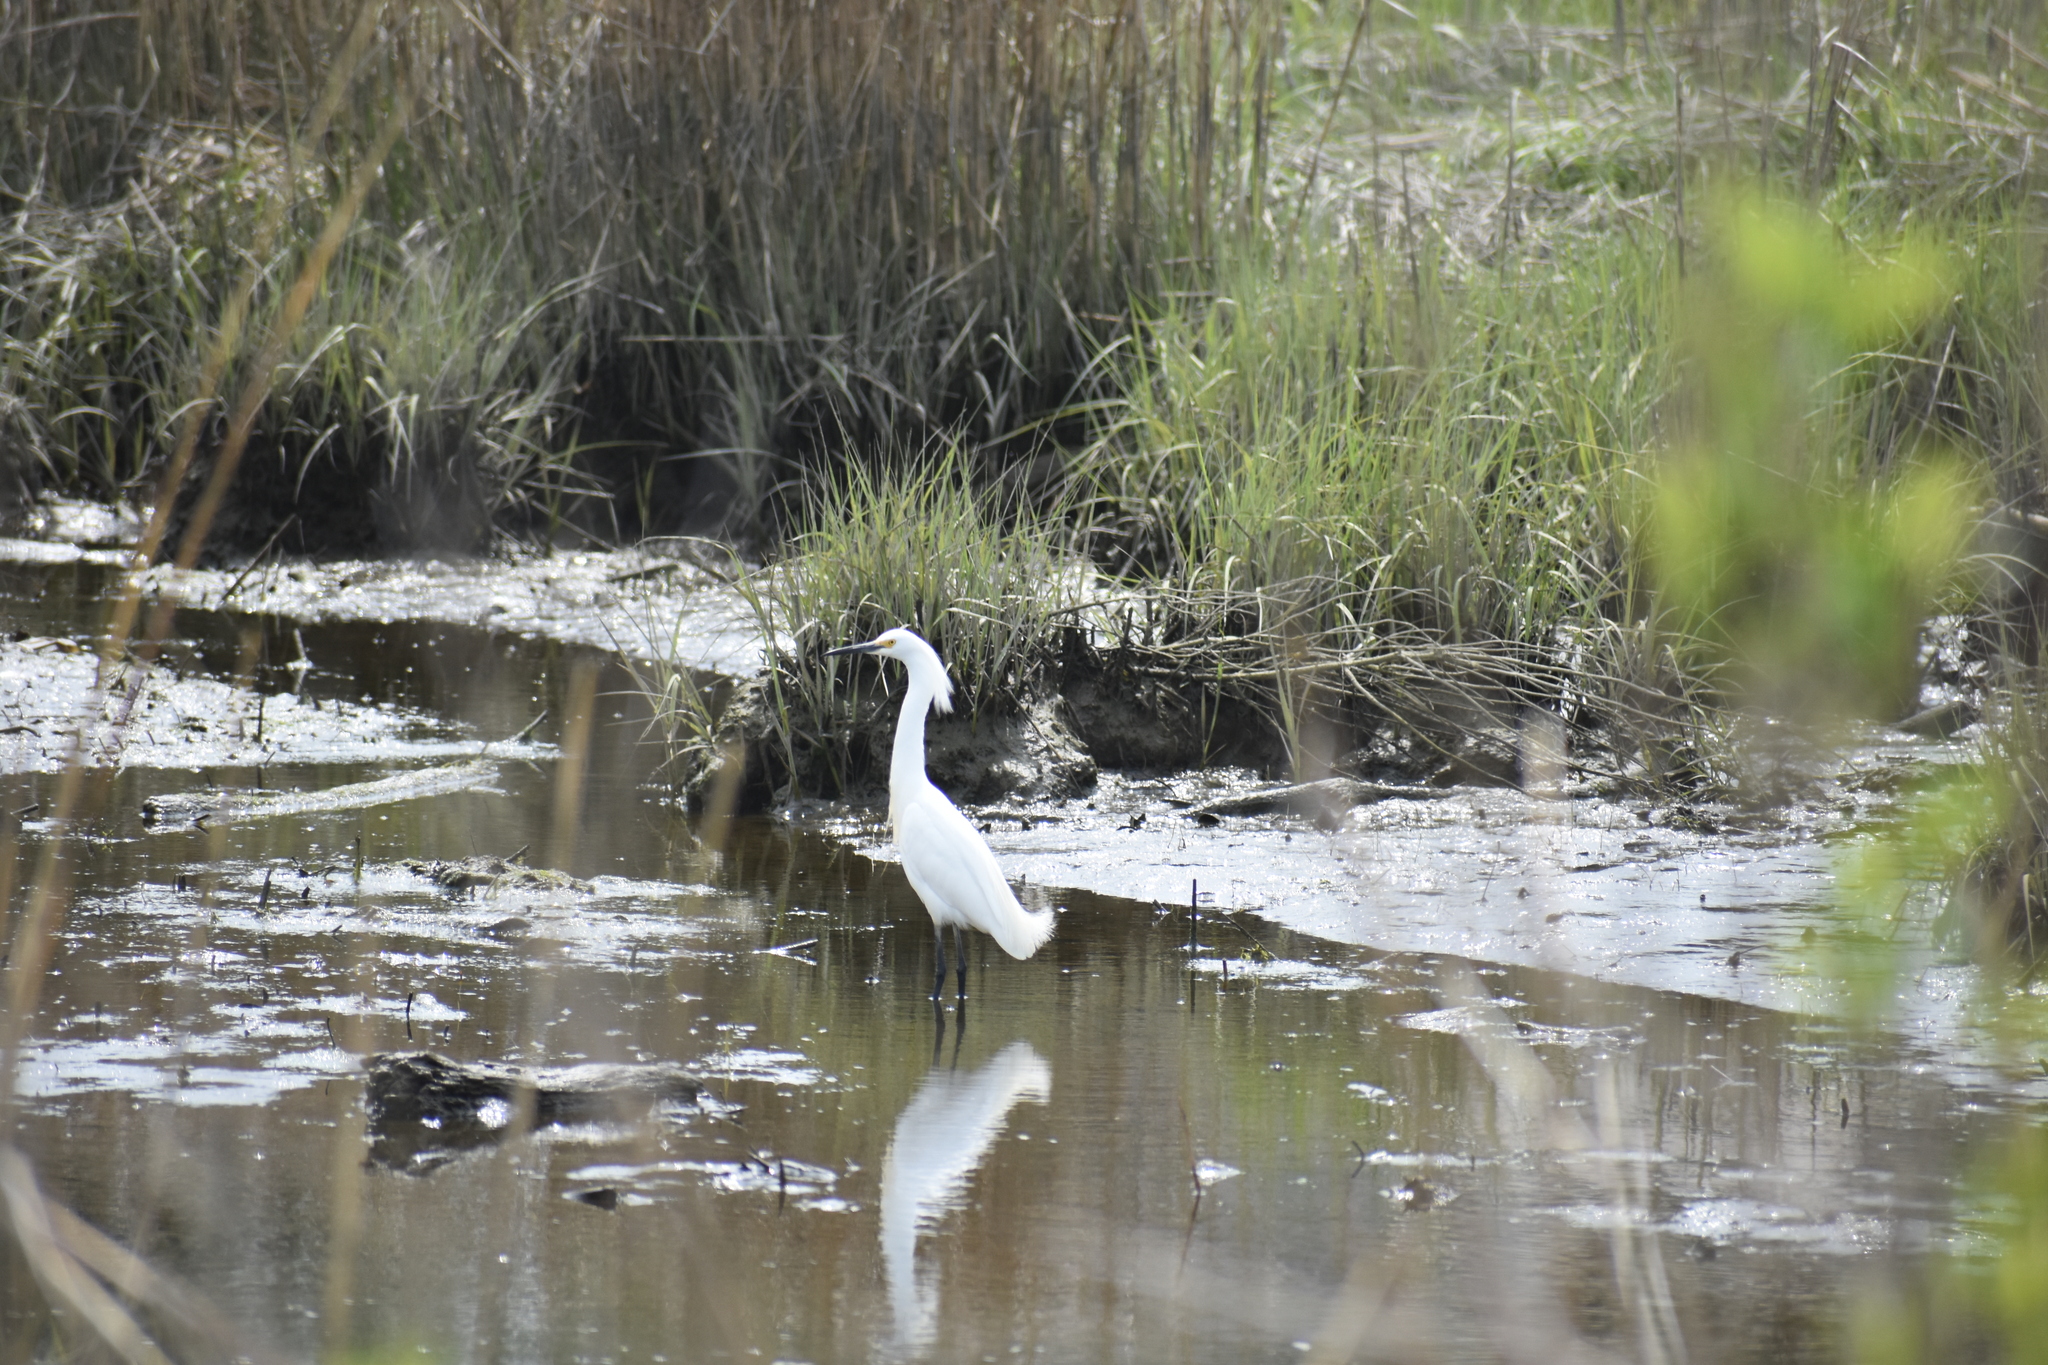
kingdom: Animalia
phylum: Chordata
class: Aves
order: Pelecaniformes
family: Ardeidae
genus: Egretta
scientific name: Egretta thula
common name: Snowy egret
